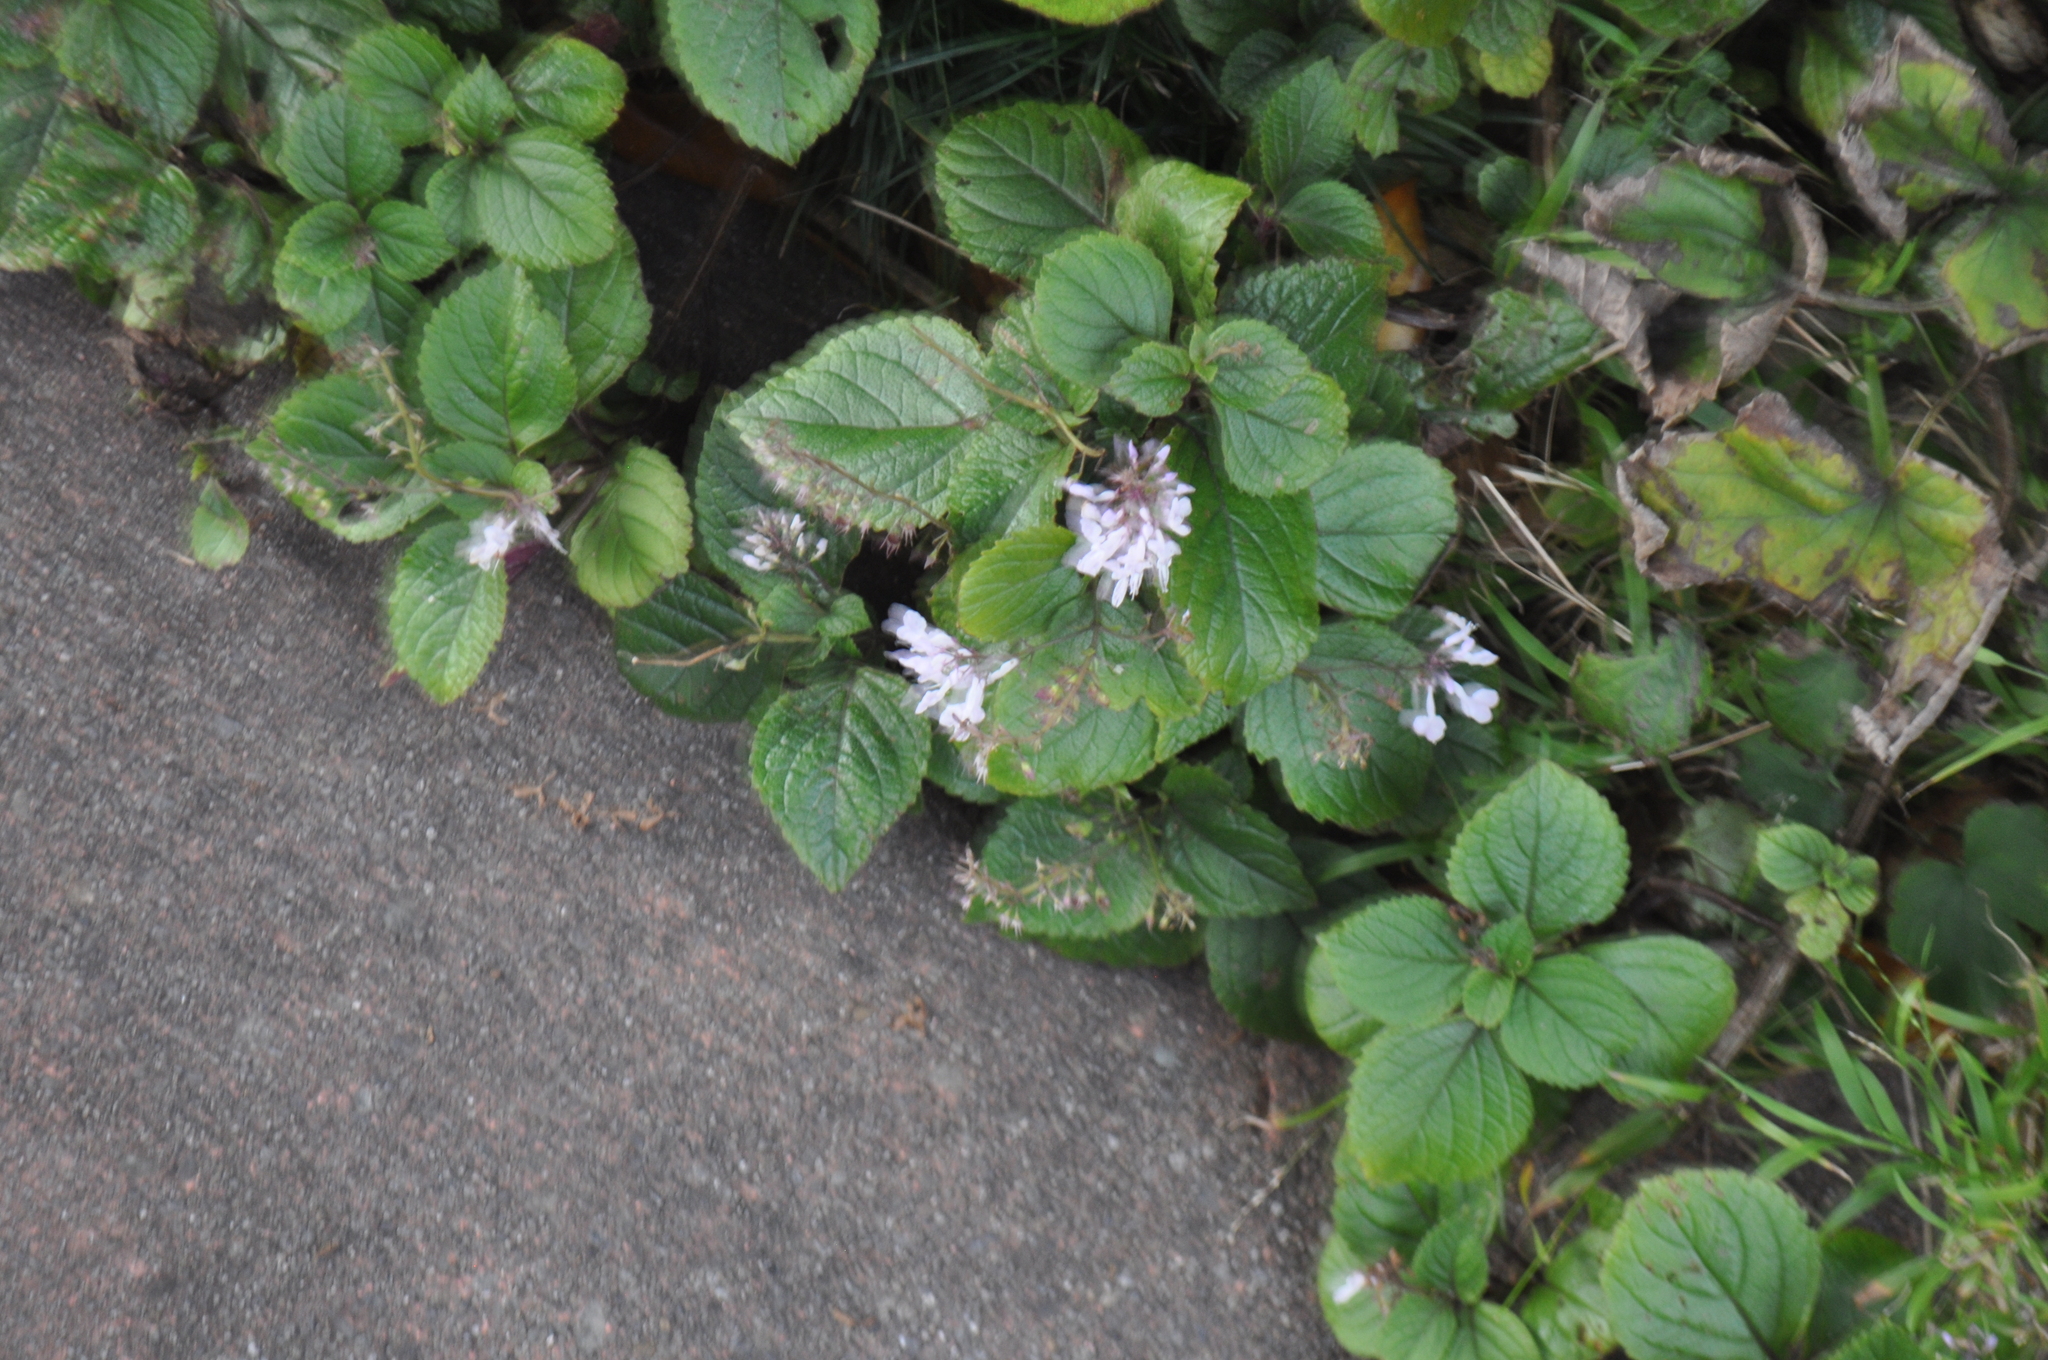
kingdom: Plantae
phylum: Tracheophyta
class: Magnoliopsida
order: Lamiales
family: Lamiaceae
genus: Plectranthus
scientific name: Plectranthus ciliatus
